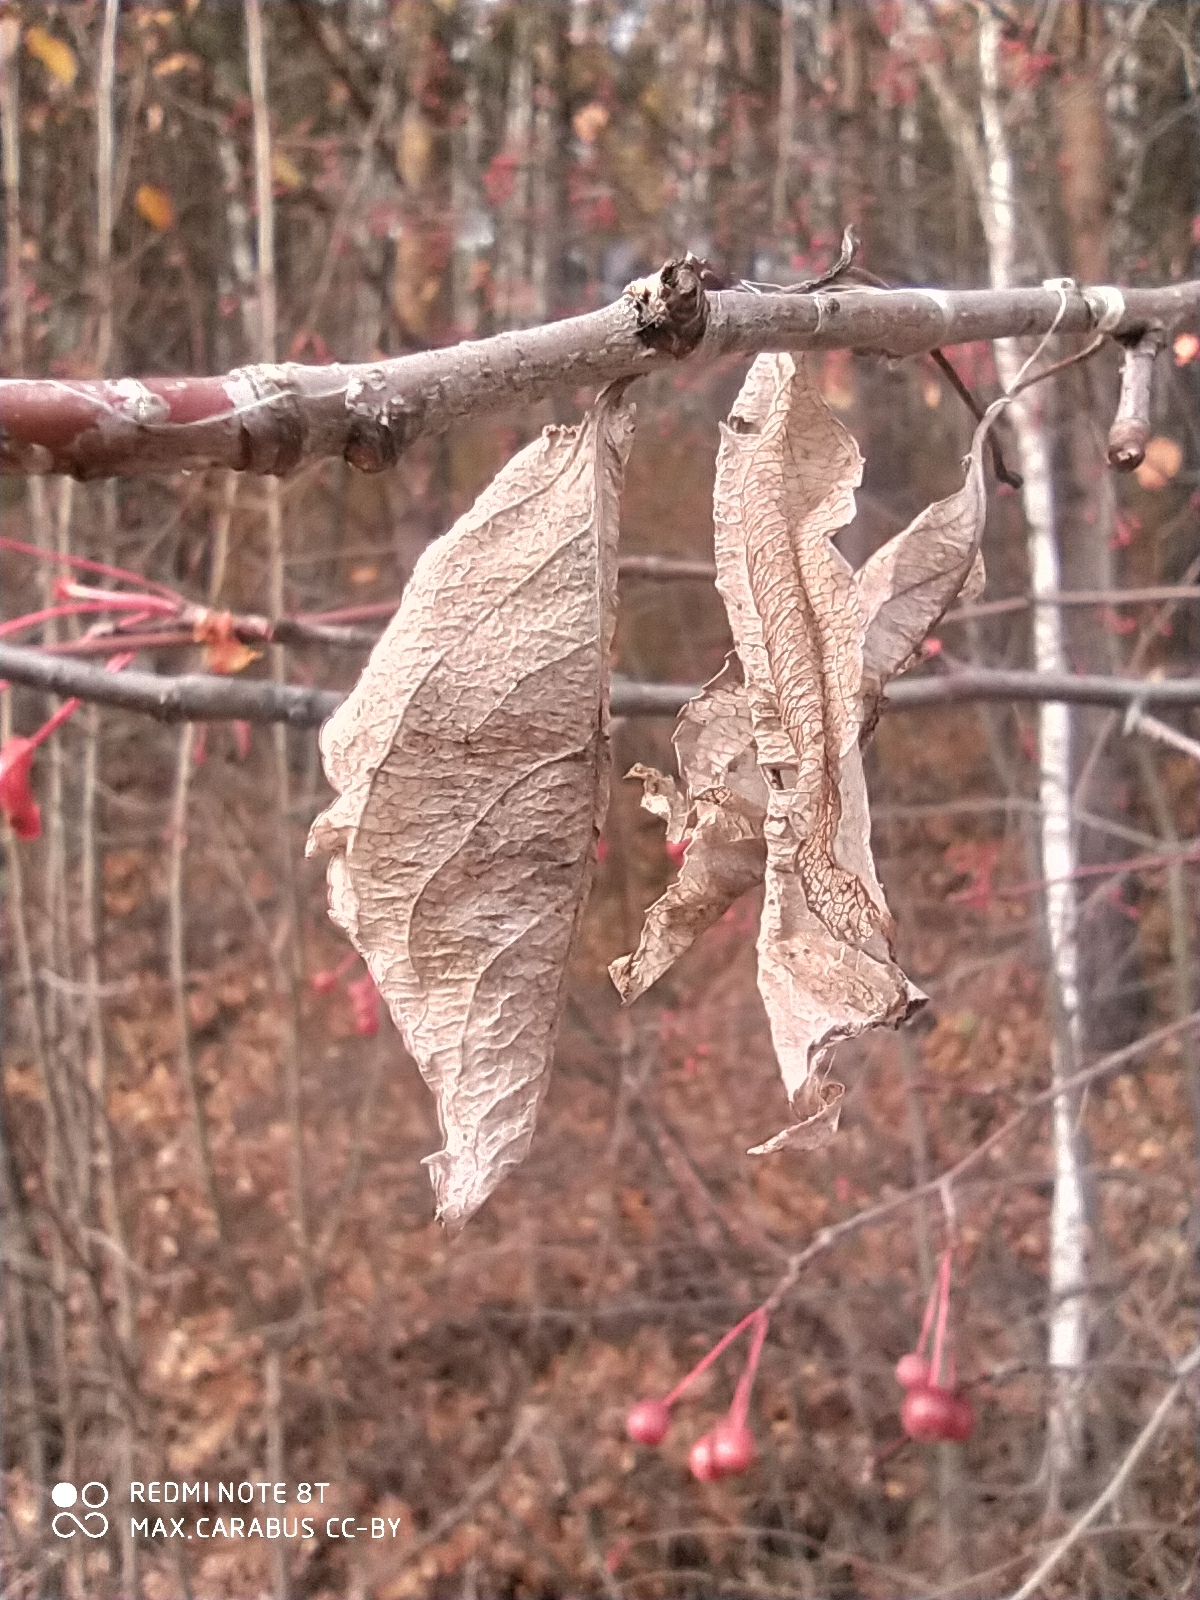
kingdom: Plantae
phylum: Tracheophyta
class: Magnoliopsida
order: Rosales
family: Rosaceae
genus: Malus
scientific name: Malus baccata
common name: Siberian crab
